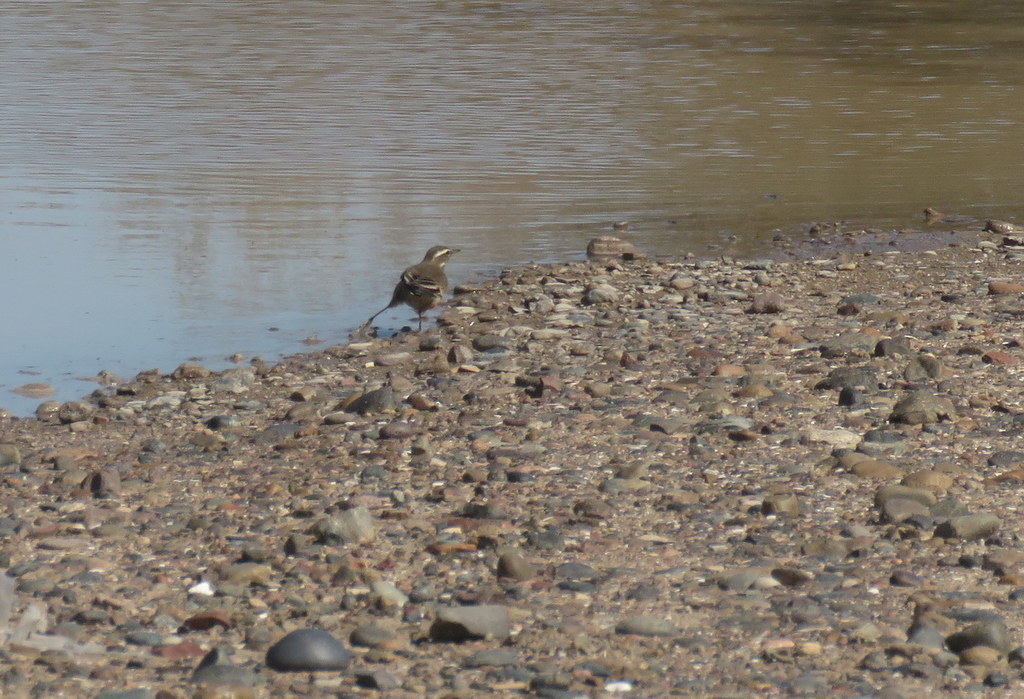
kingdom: Animalia
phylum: Chordata
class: Aves
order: Passeriformes
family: Furnariidae
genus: Cinclodes
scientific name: Cinclodes fuscus
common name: Buff-winged cinclodes
